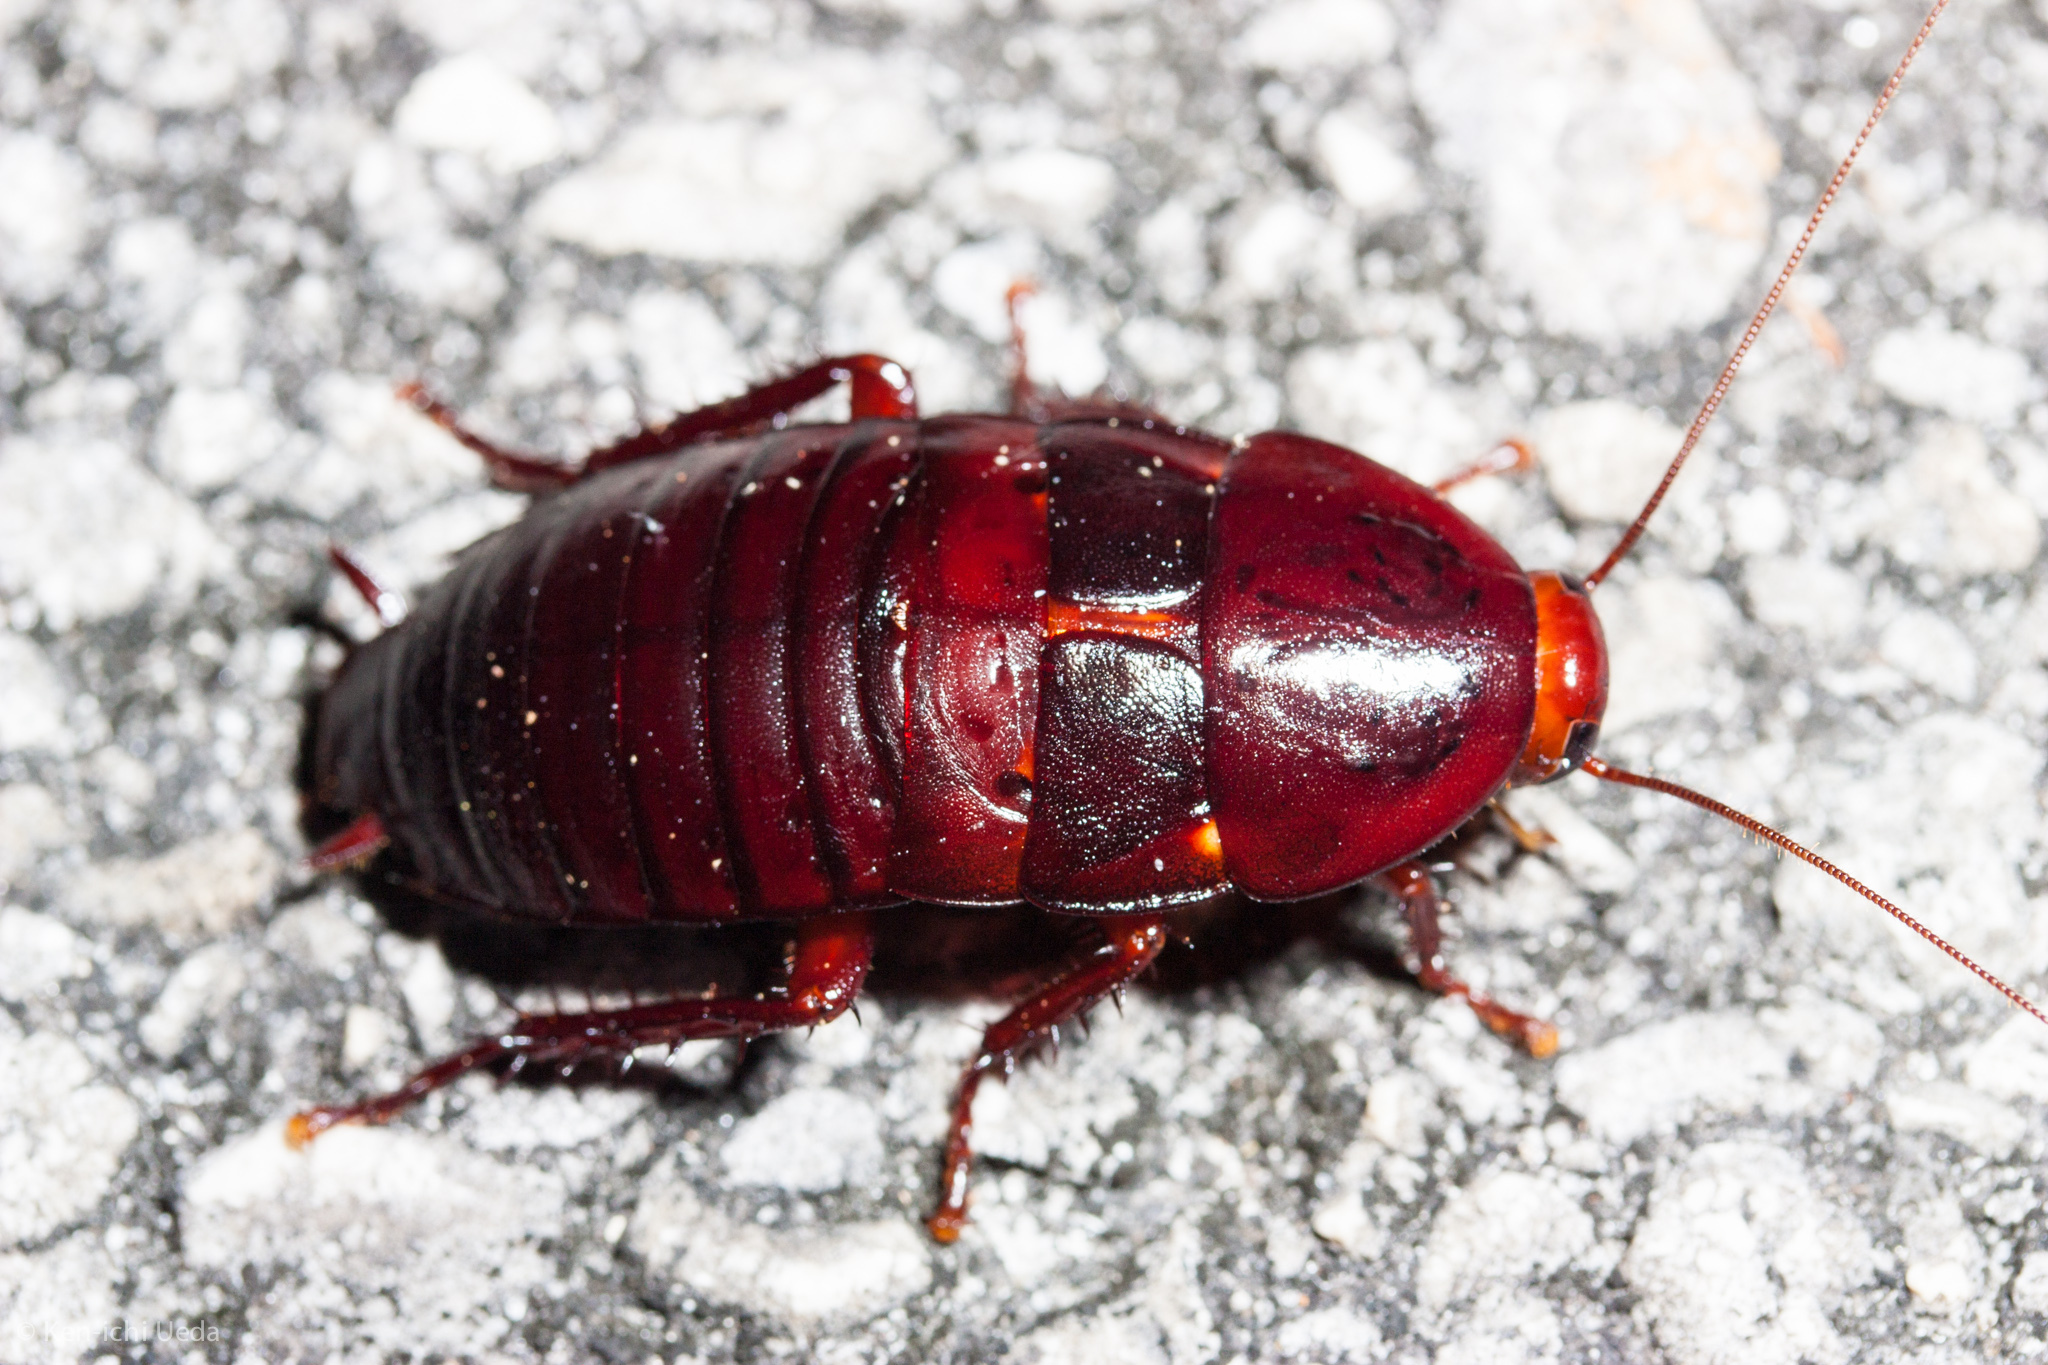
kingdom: Animalia
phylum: Arthropoda
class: Insecta
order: Blattodea
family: Blattidae
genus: Eurycotis
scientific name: Eurycotis floridana
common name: Florida cockroach
